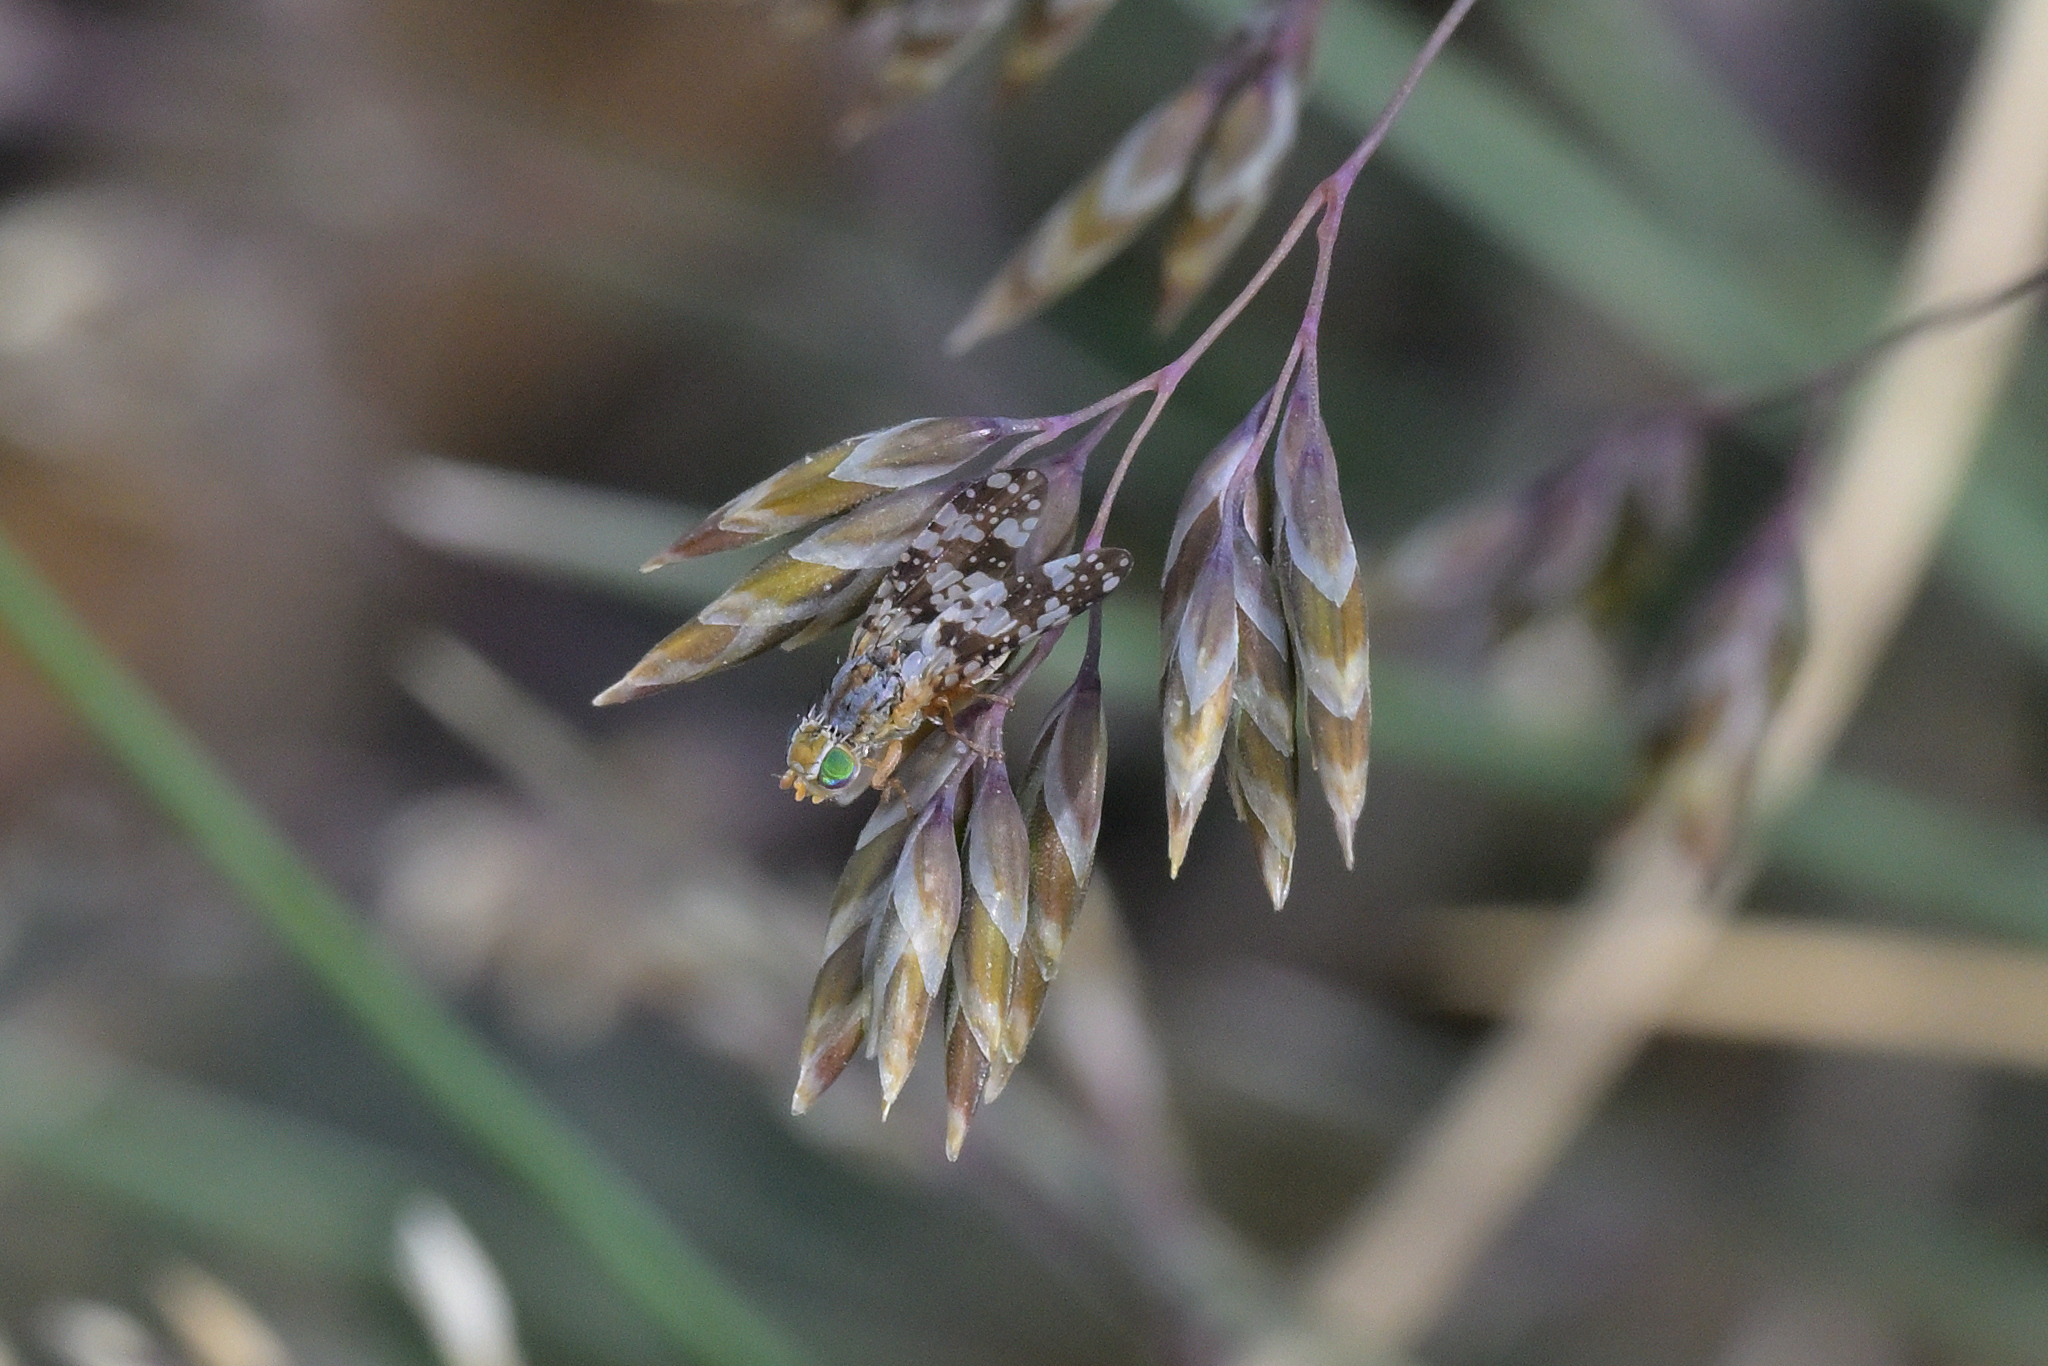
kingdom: Animalia
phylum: Arthropoda
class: Insecta
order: Diptera
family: Tephritidae
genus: Austrotephritis
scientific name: Austrotephritis
